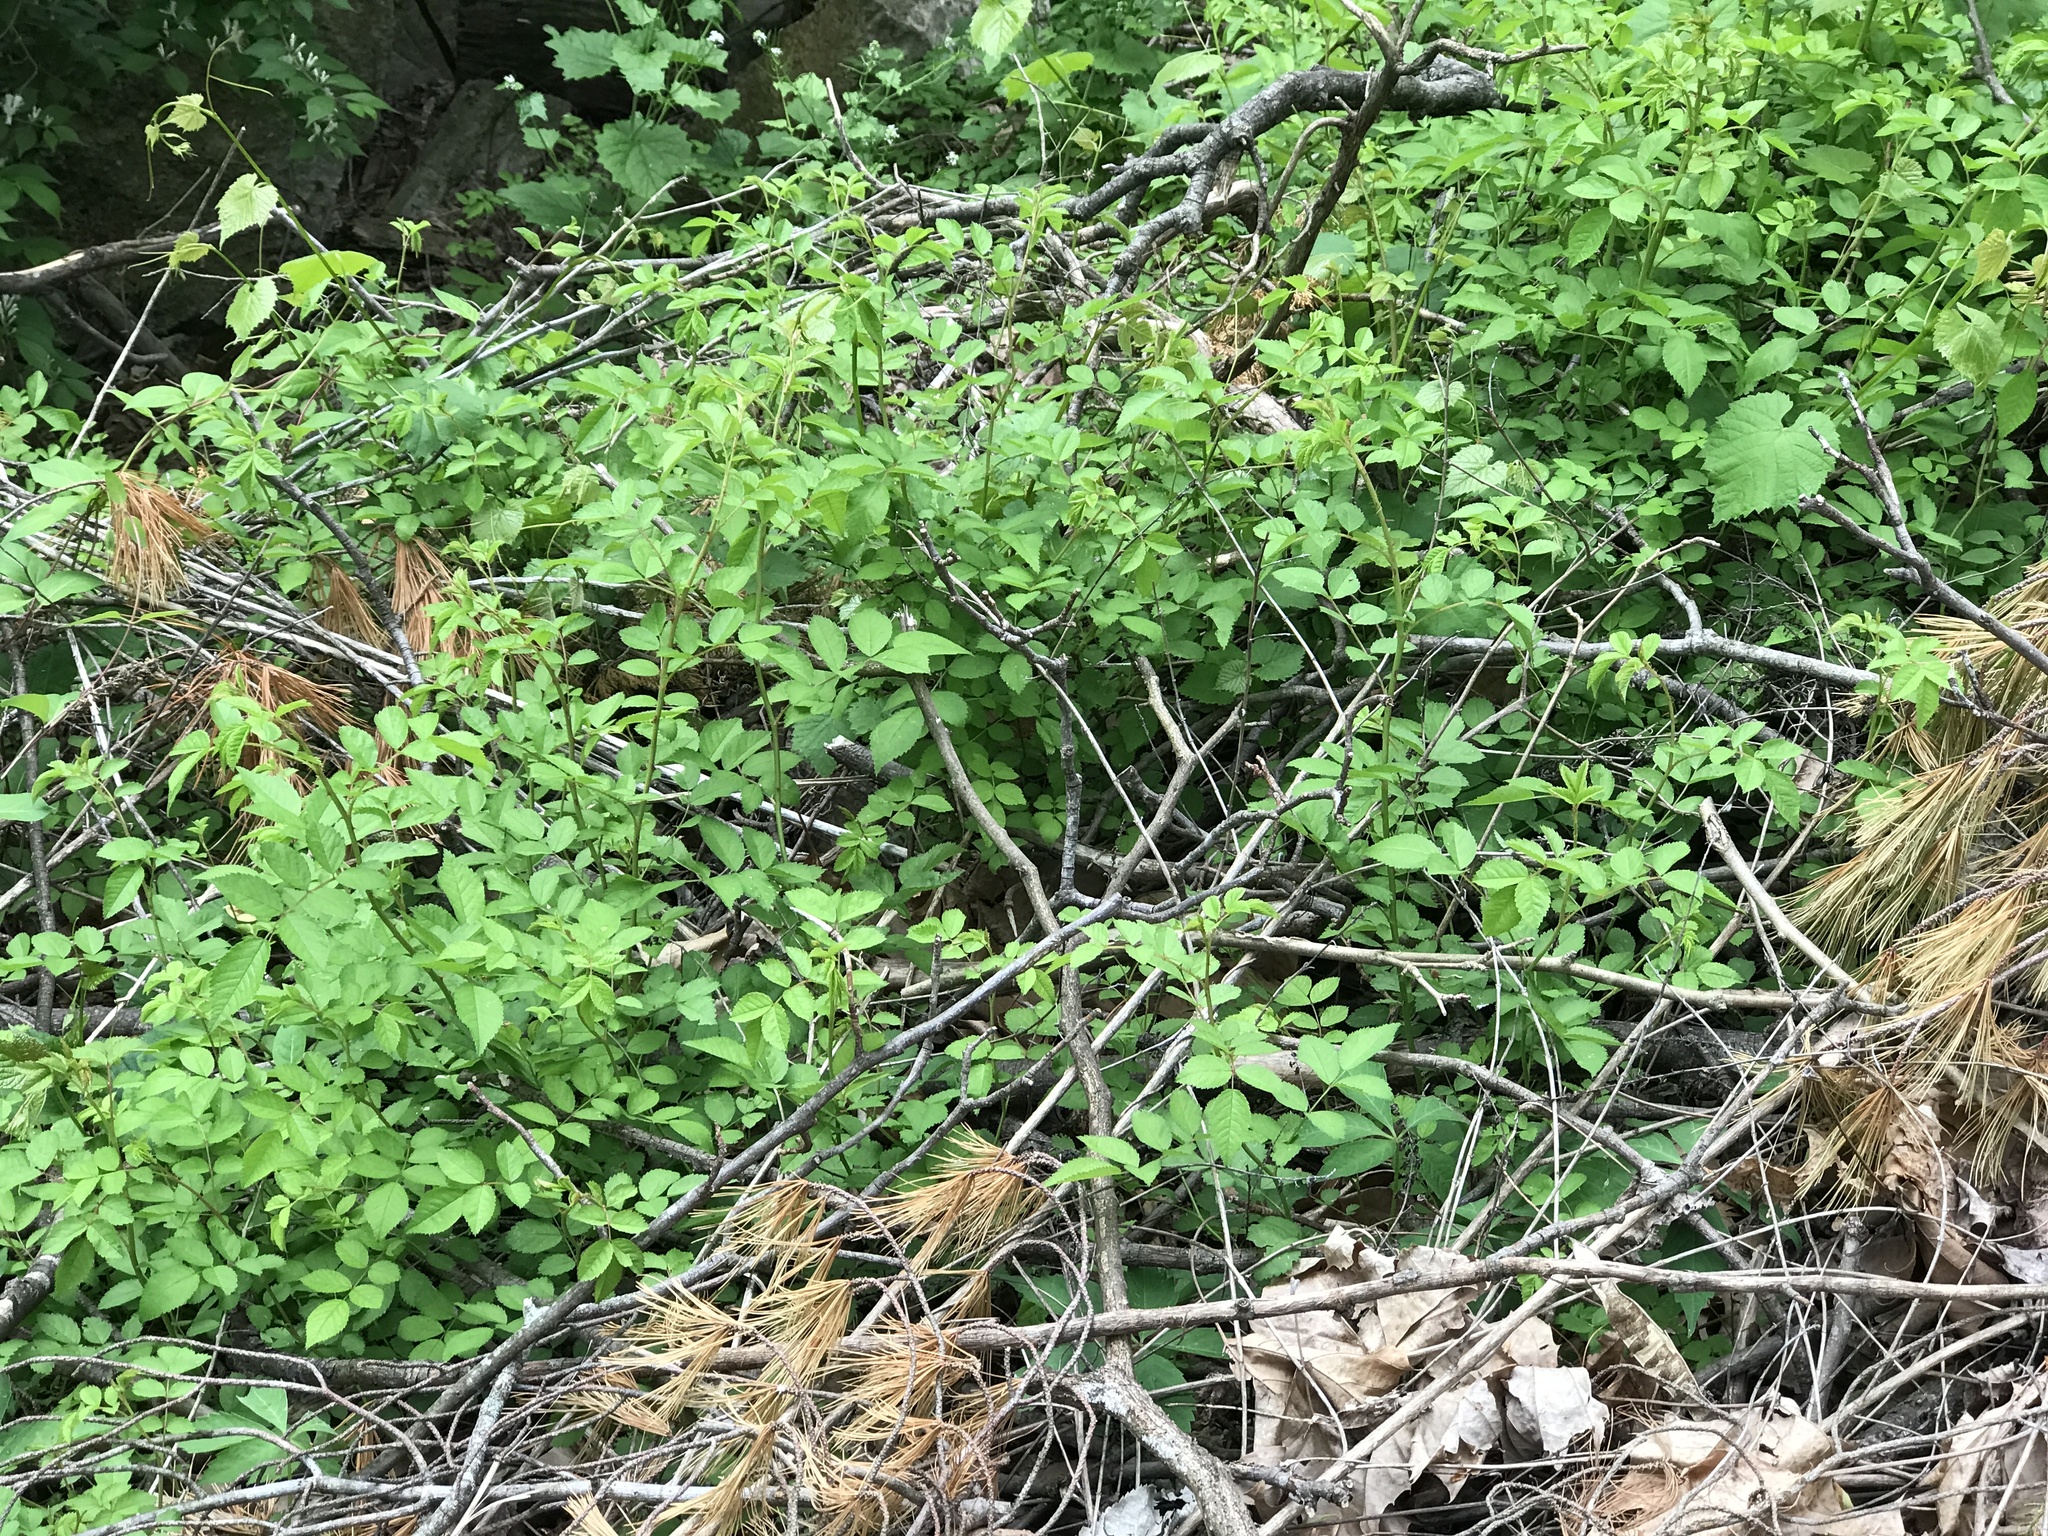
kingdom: Plantae
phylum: Tracheophyta
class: Magnoliopsida
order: Rosales
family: Rosaceae
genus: Rosa
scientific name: Rosa multiflora
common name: Multiflora rose
